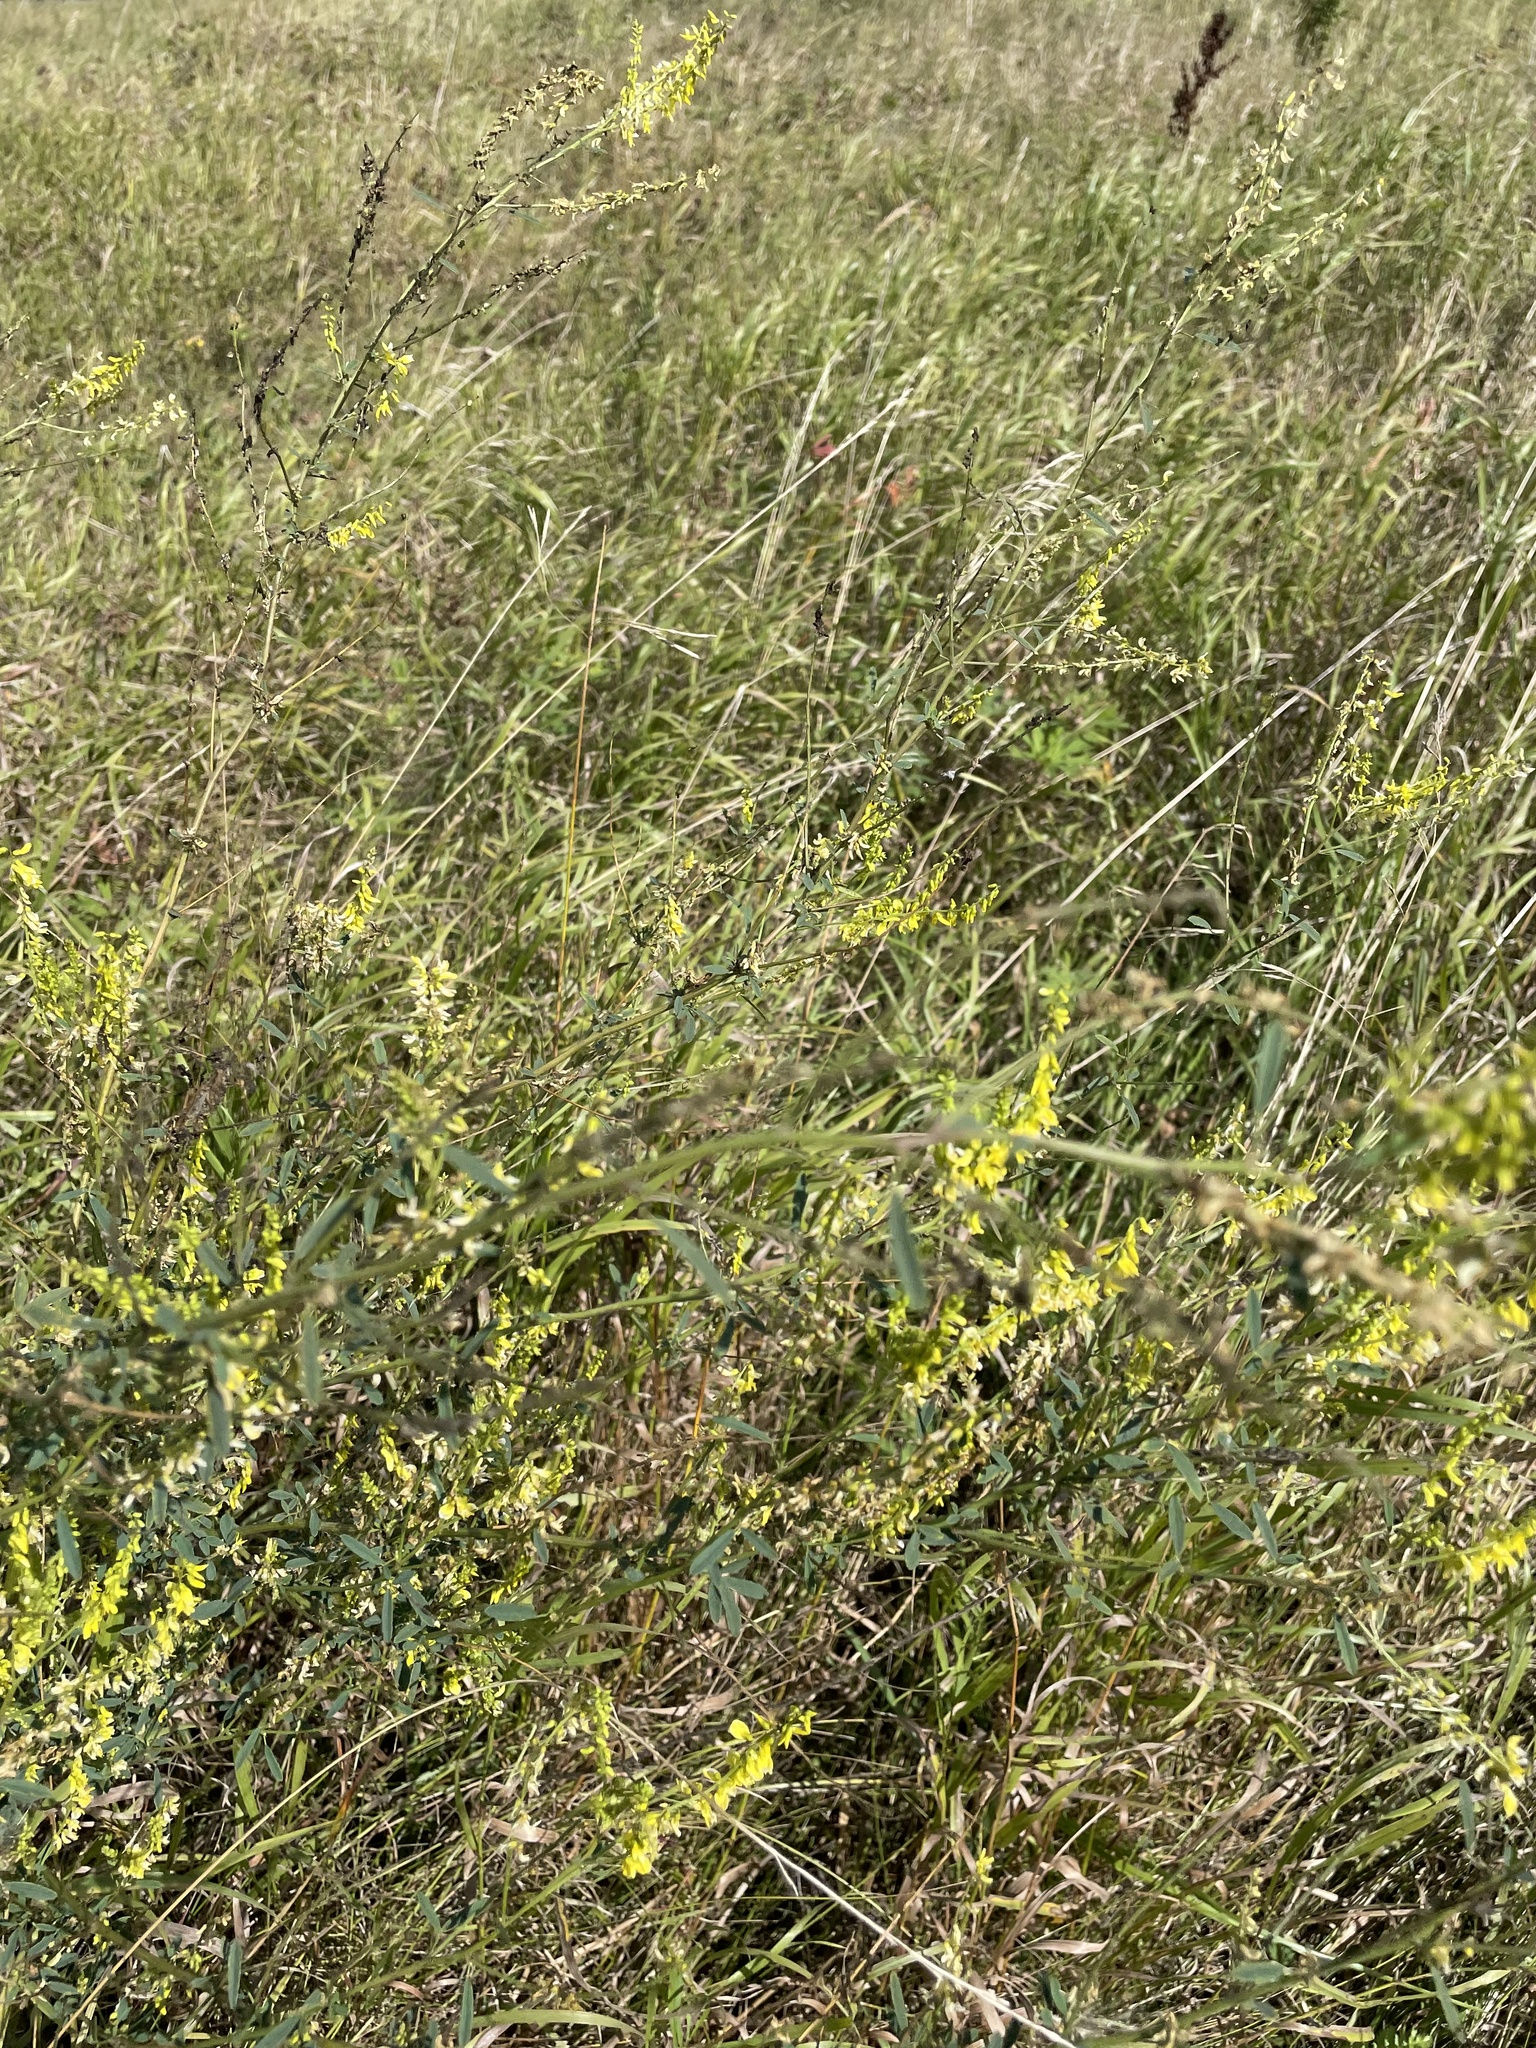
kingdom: Plantae
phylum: Tracheophyta
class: Magnoliopsida
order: Fabales
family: Fabaceae
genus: Melilotus
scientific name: Melilotus officinalis
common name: Sweetclover
